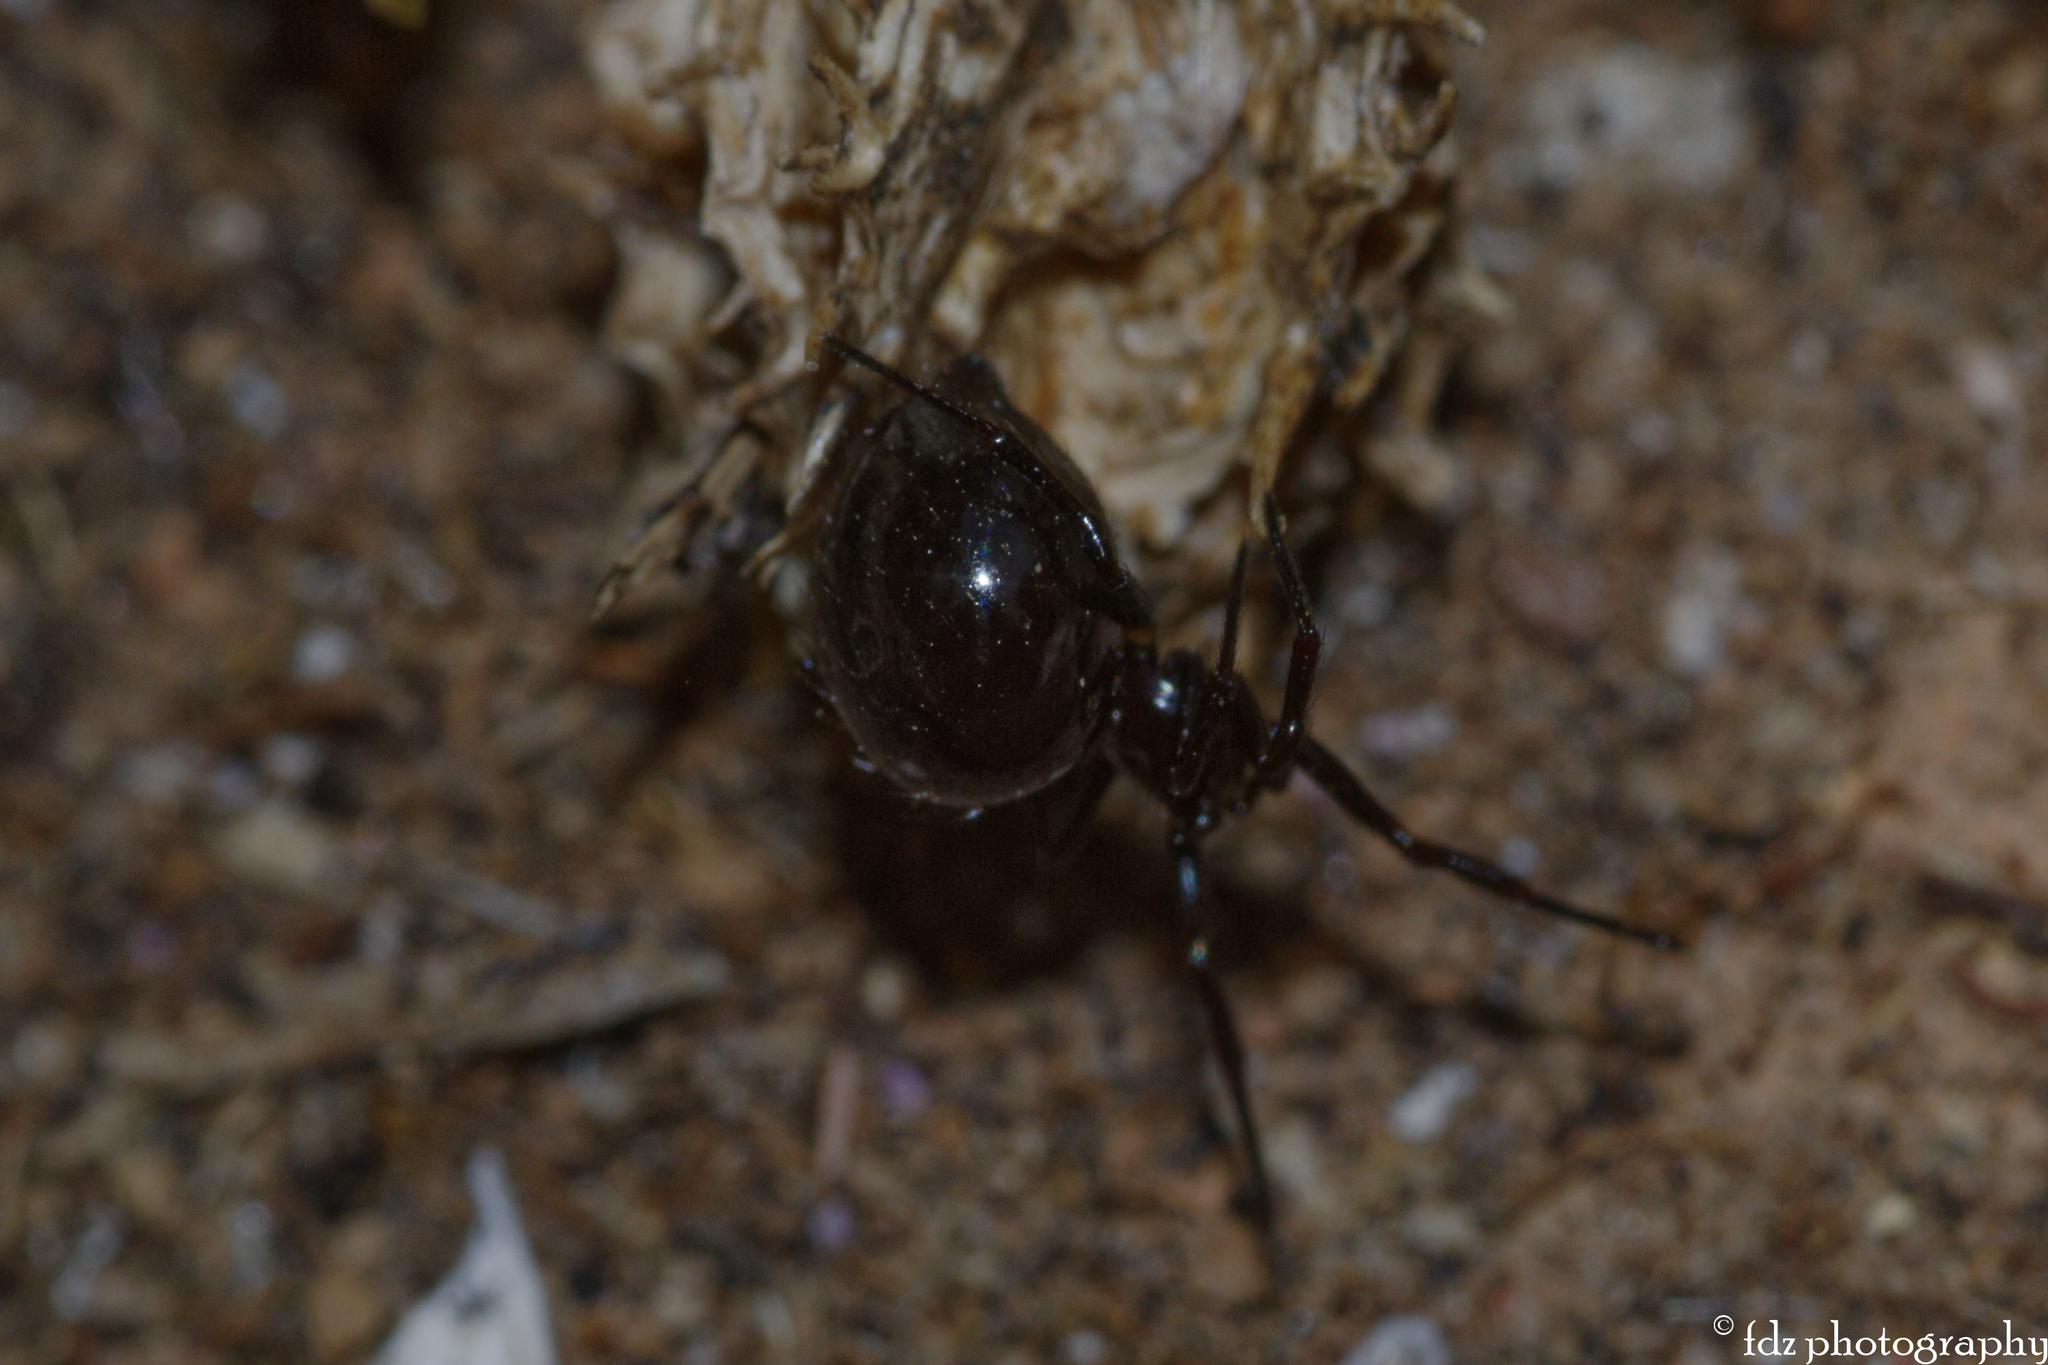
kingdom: Animalia
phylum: Arthropoda
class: Arachnida
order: Araneae
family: Theridiidae
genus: Euryopis
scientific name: Euryopis episinoides
